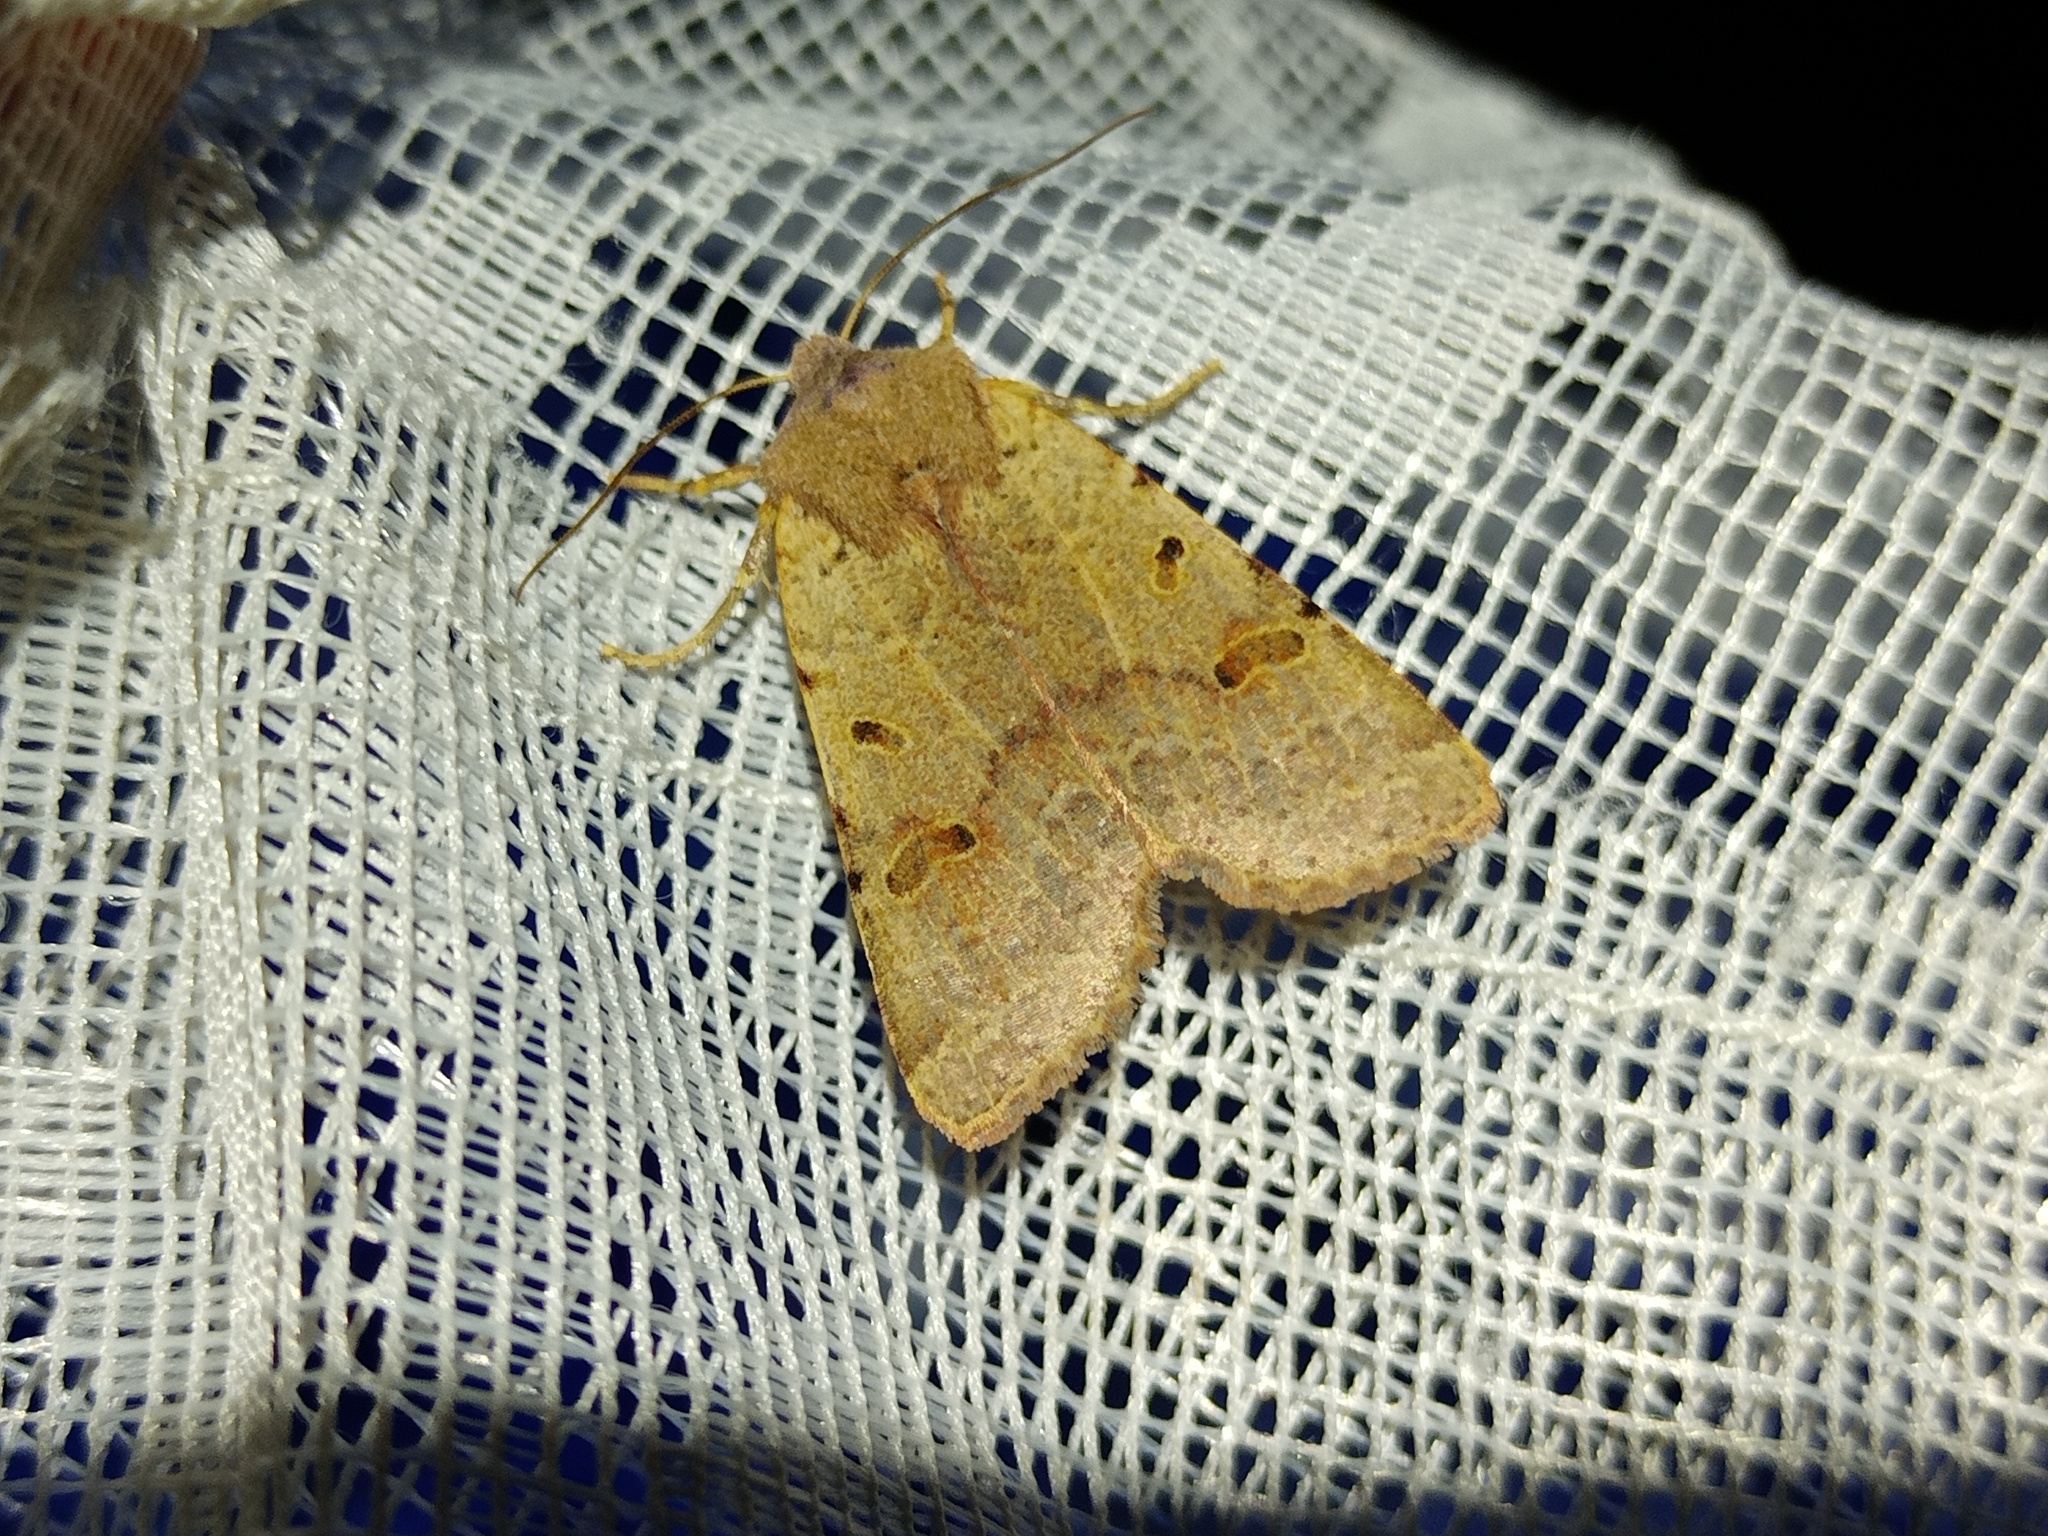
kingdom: Animalia
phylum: Arthropoda
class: Insecta
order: Lepidoptera
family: Noctuidae
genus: Agrochola
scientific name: Agrochola lychnidis
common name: Beaded chestnut
